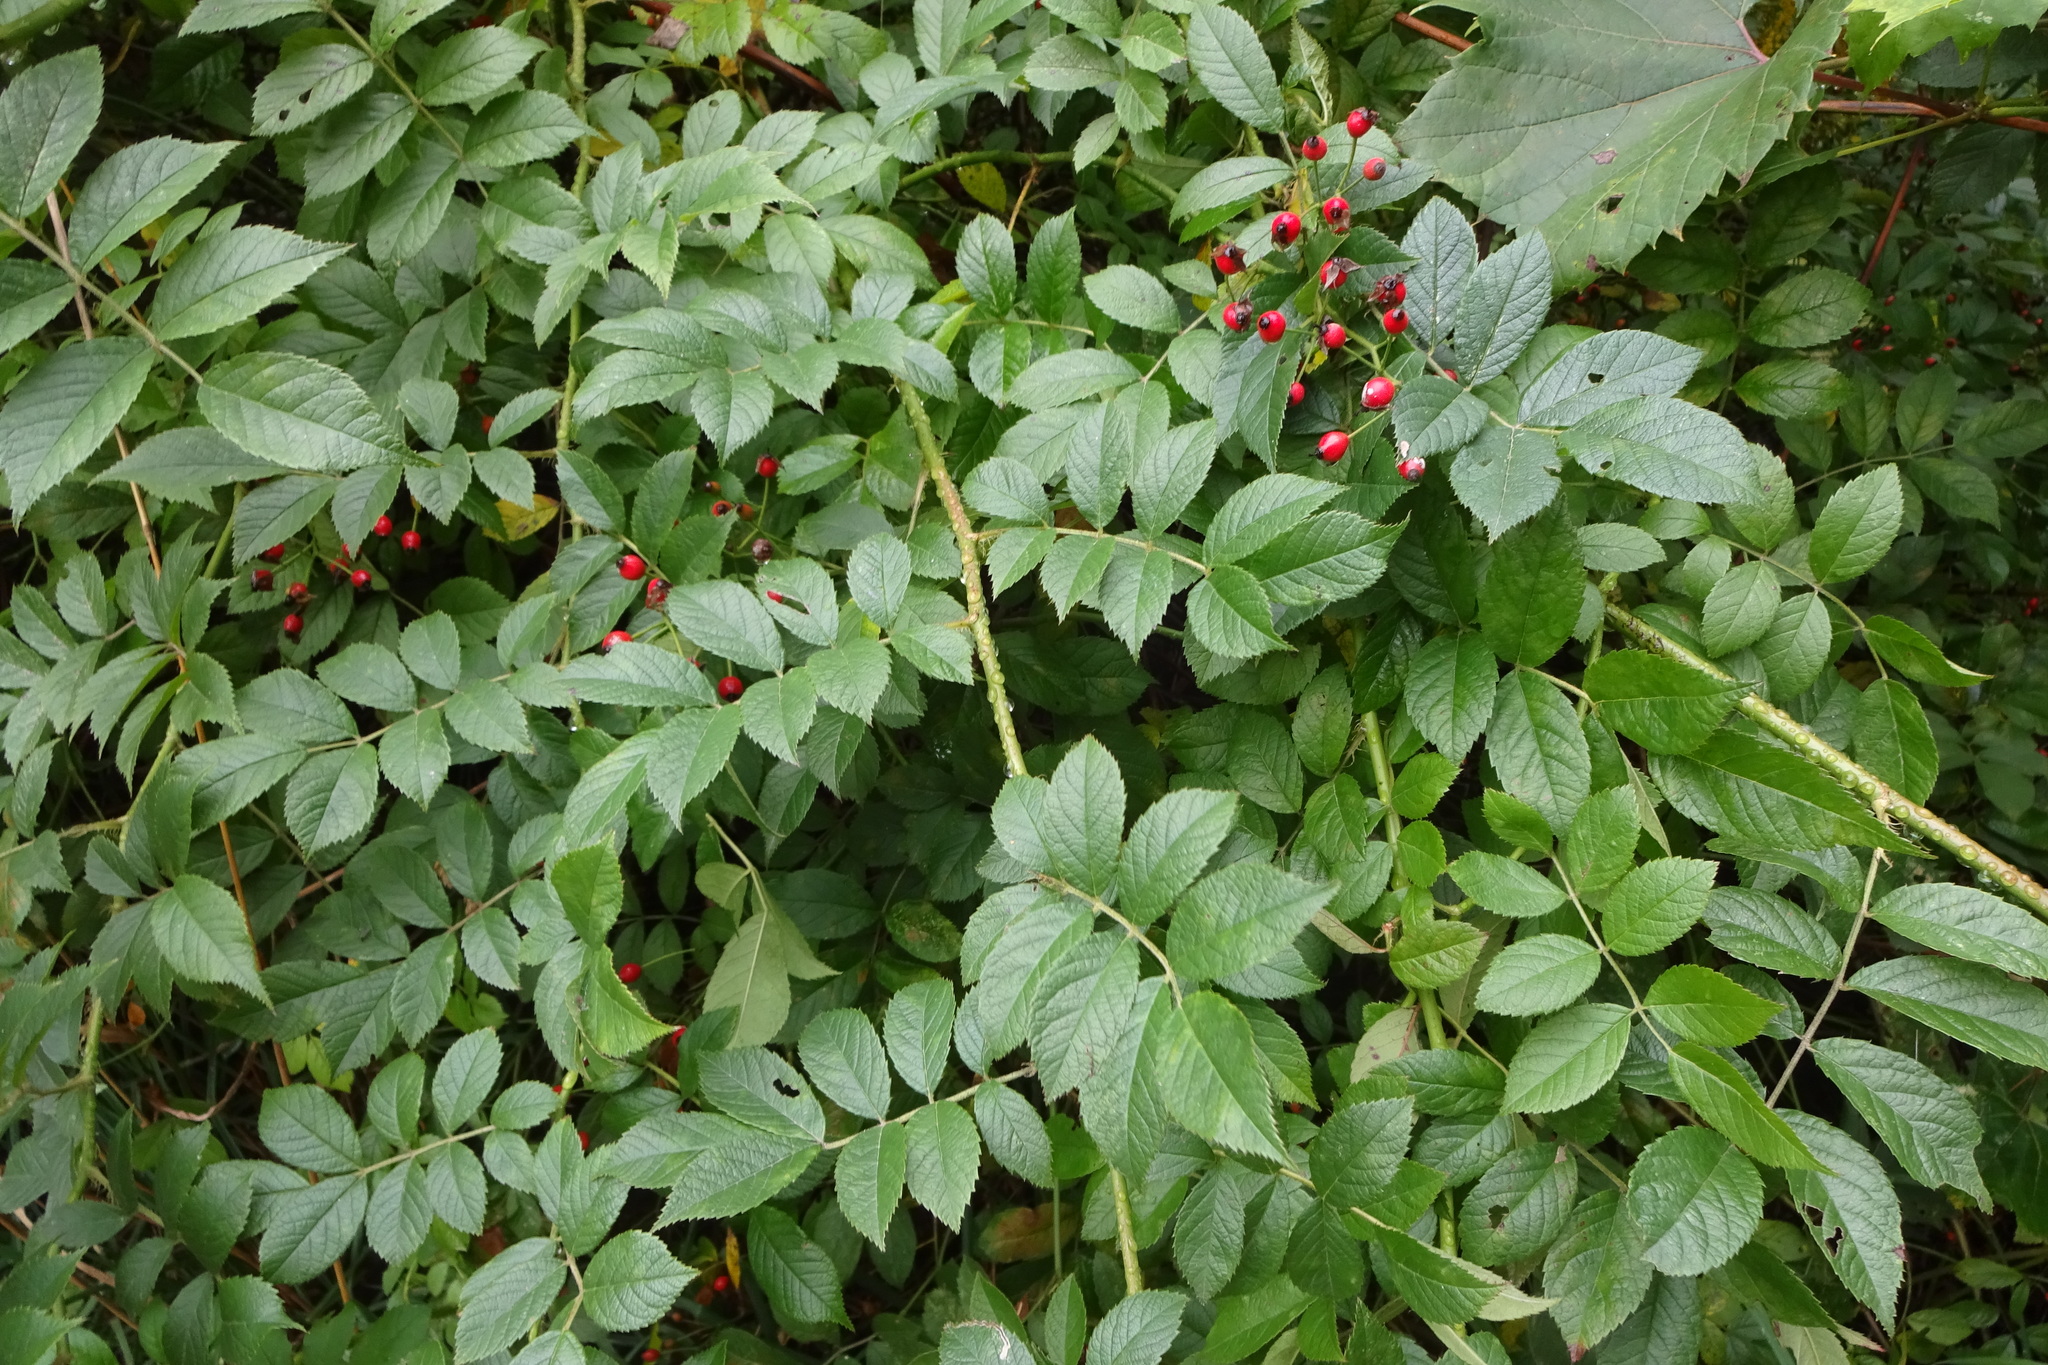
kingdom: Plantae
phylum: Tracheophyta
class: Magnoliopsida
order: Rosales
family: Rosaceae
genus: Rosa
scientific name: Rosa multiflora
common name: Multiflora rose
